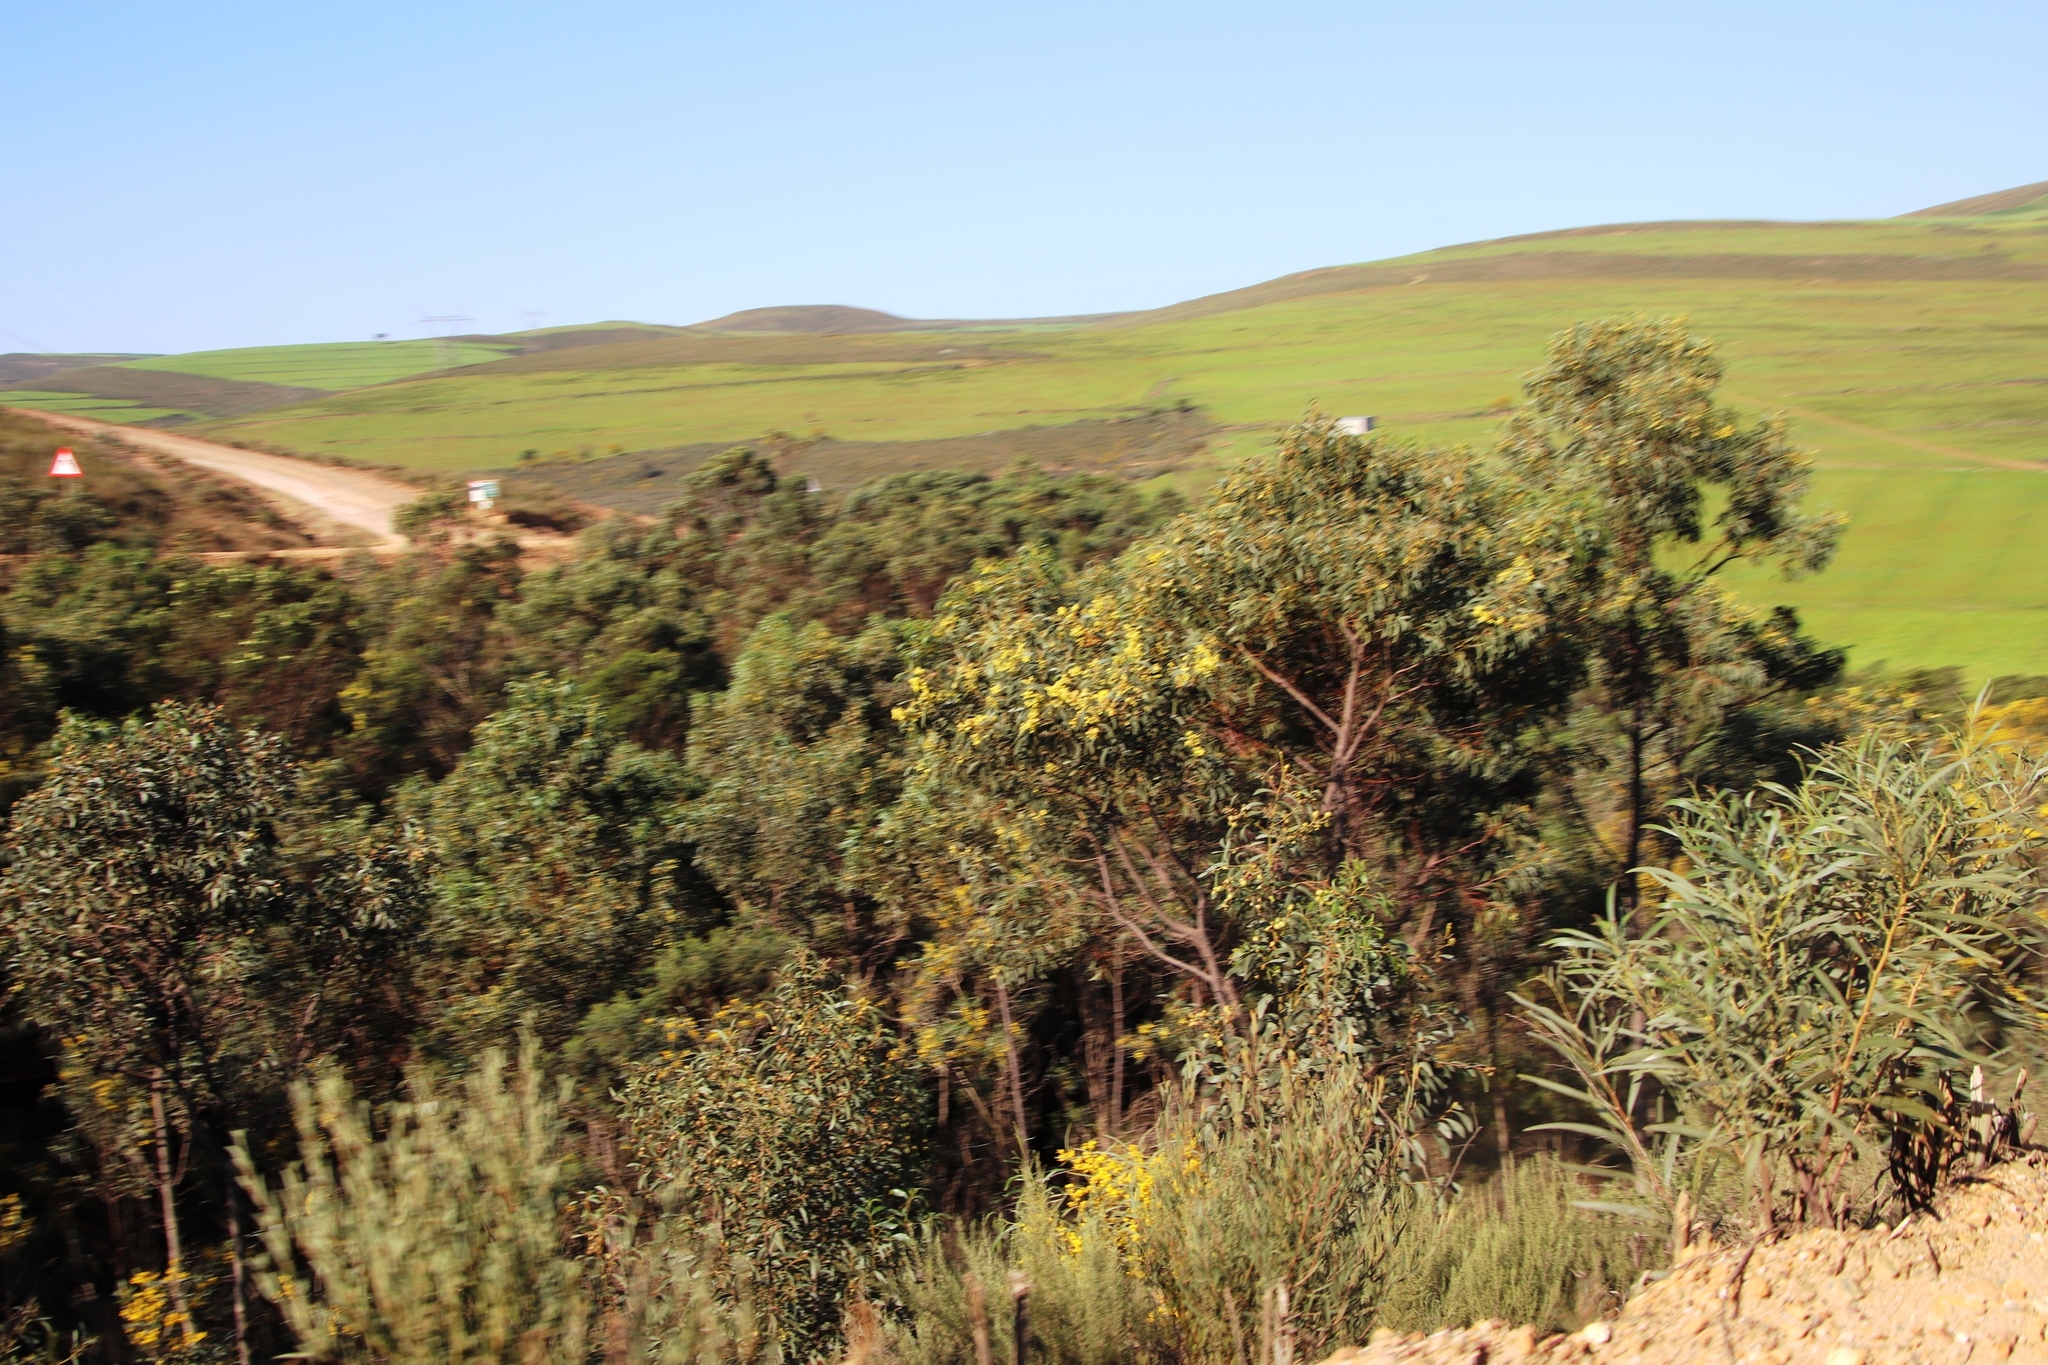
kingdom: Plantae
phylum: Tracheophyta
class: Magnoliopsida
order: Fabales
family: Fabaceae
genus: Acacia
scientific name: Acacia pycnantha
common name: Golden wattle
